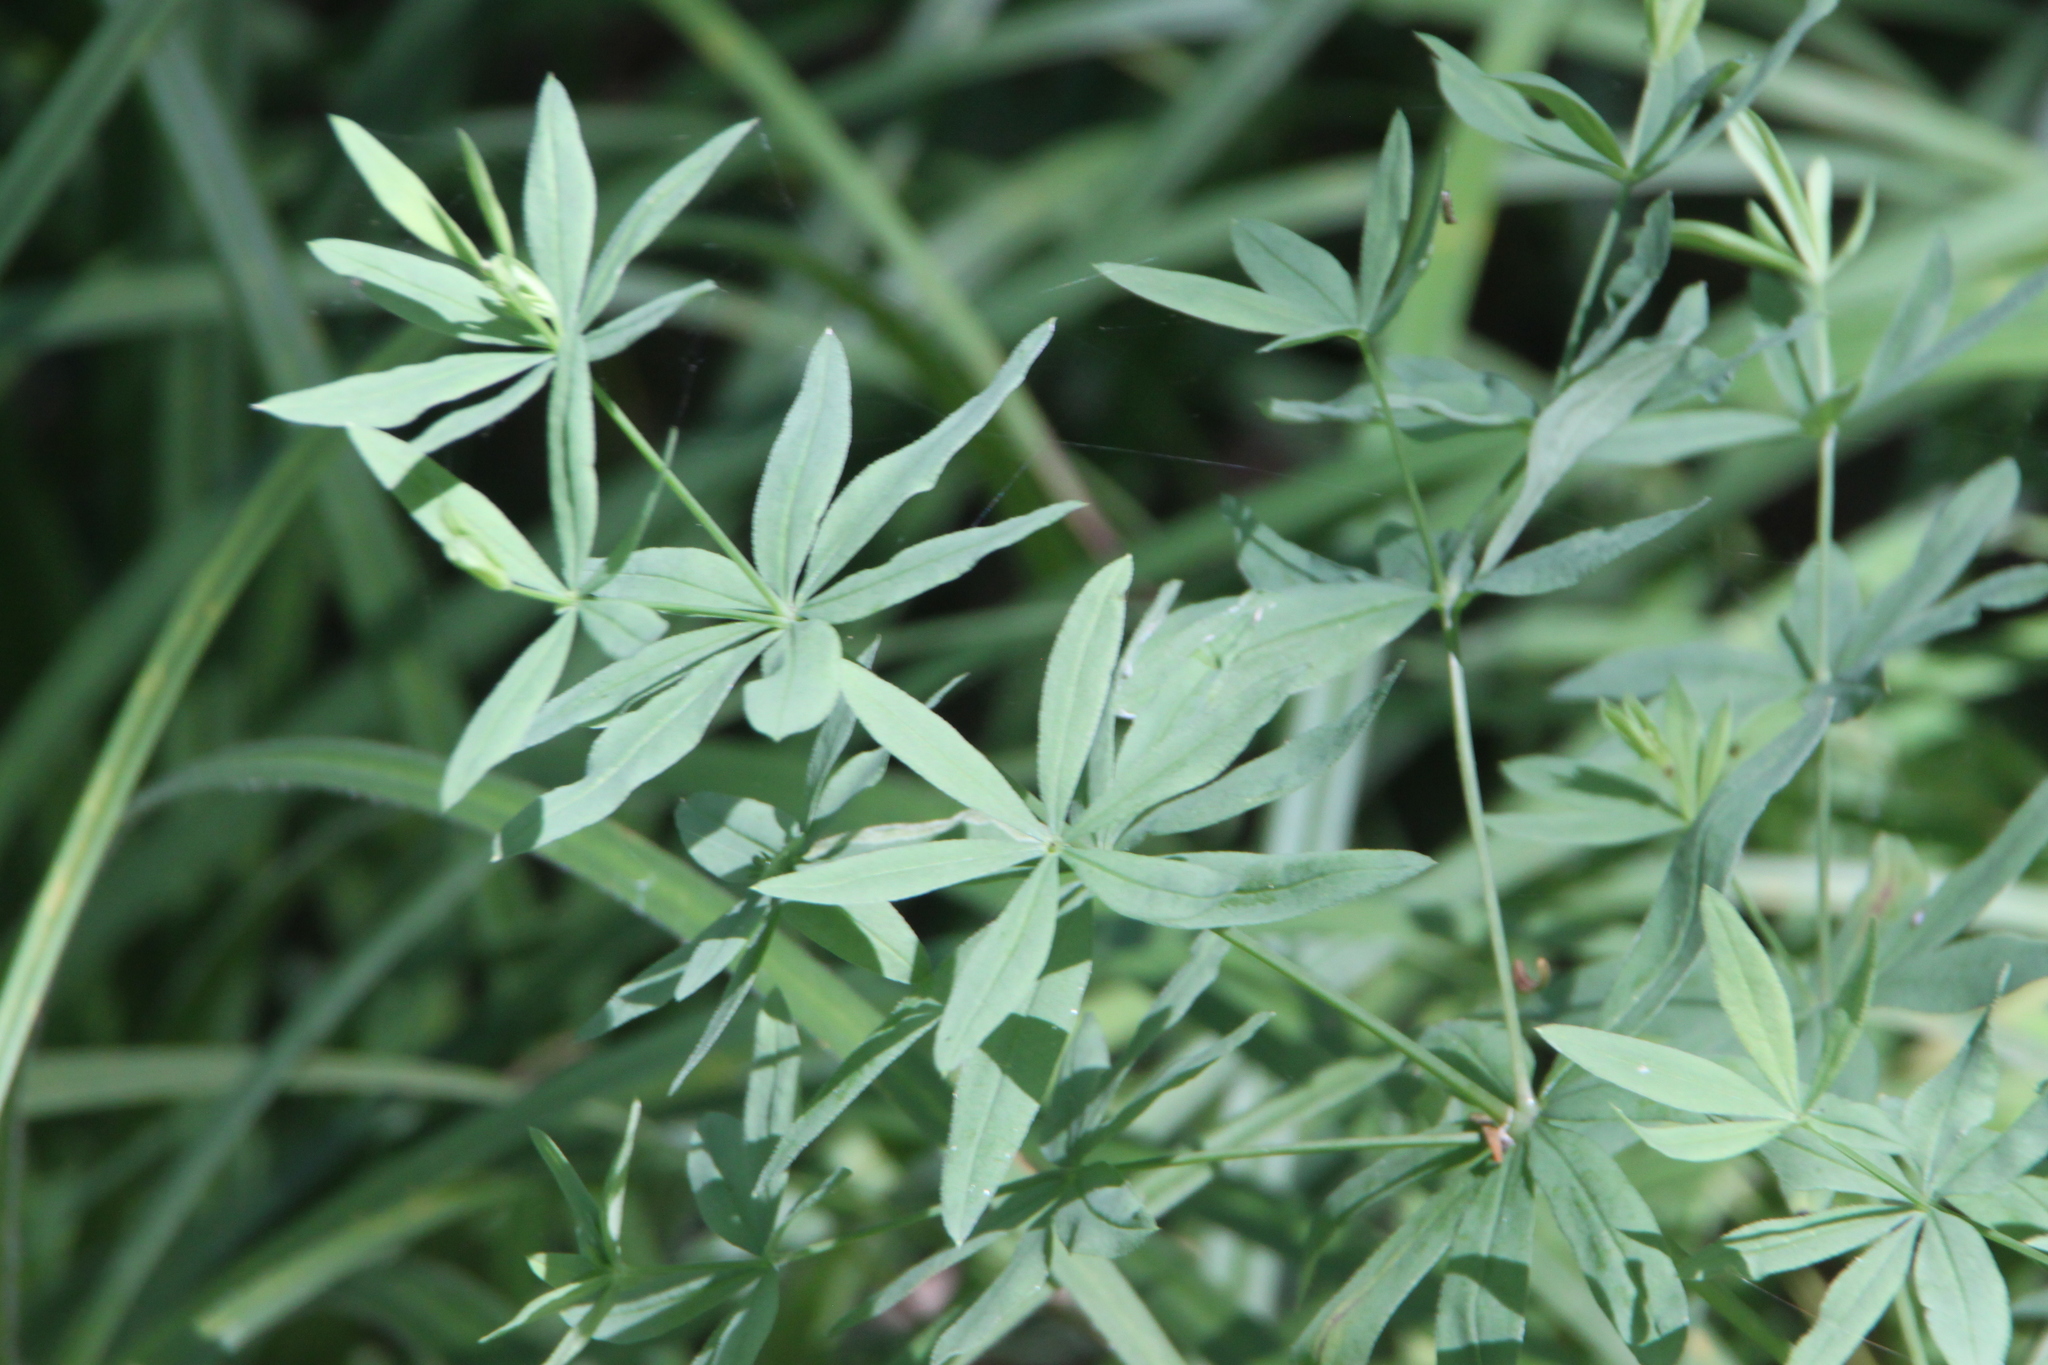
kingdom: Plantae
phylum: Tracheophyta
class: Magnoliopsida
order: Gentianales
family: Rubiaceae
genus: Galium
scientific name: Galium intermedium
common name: Bedstraw
